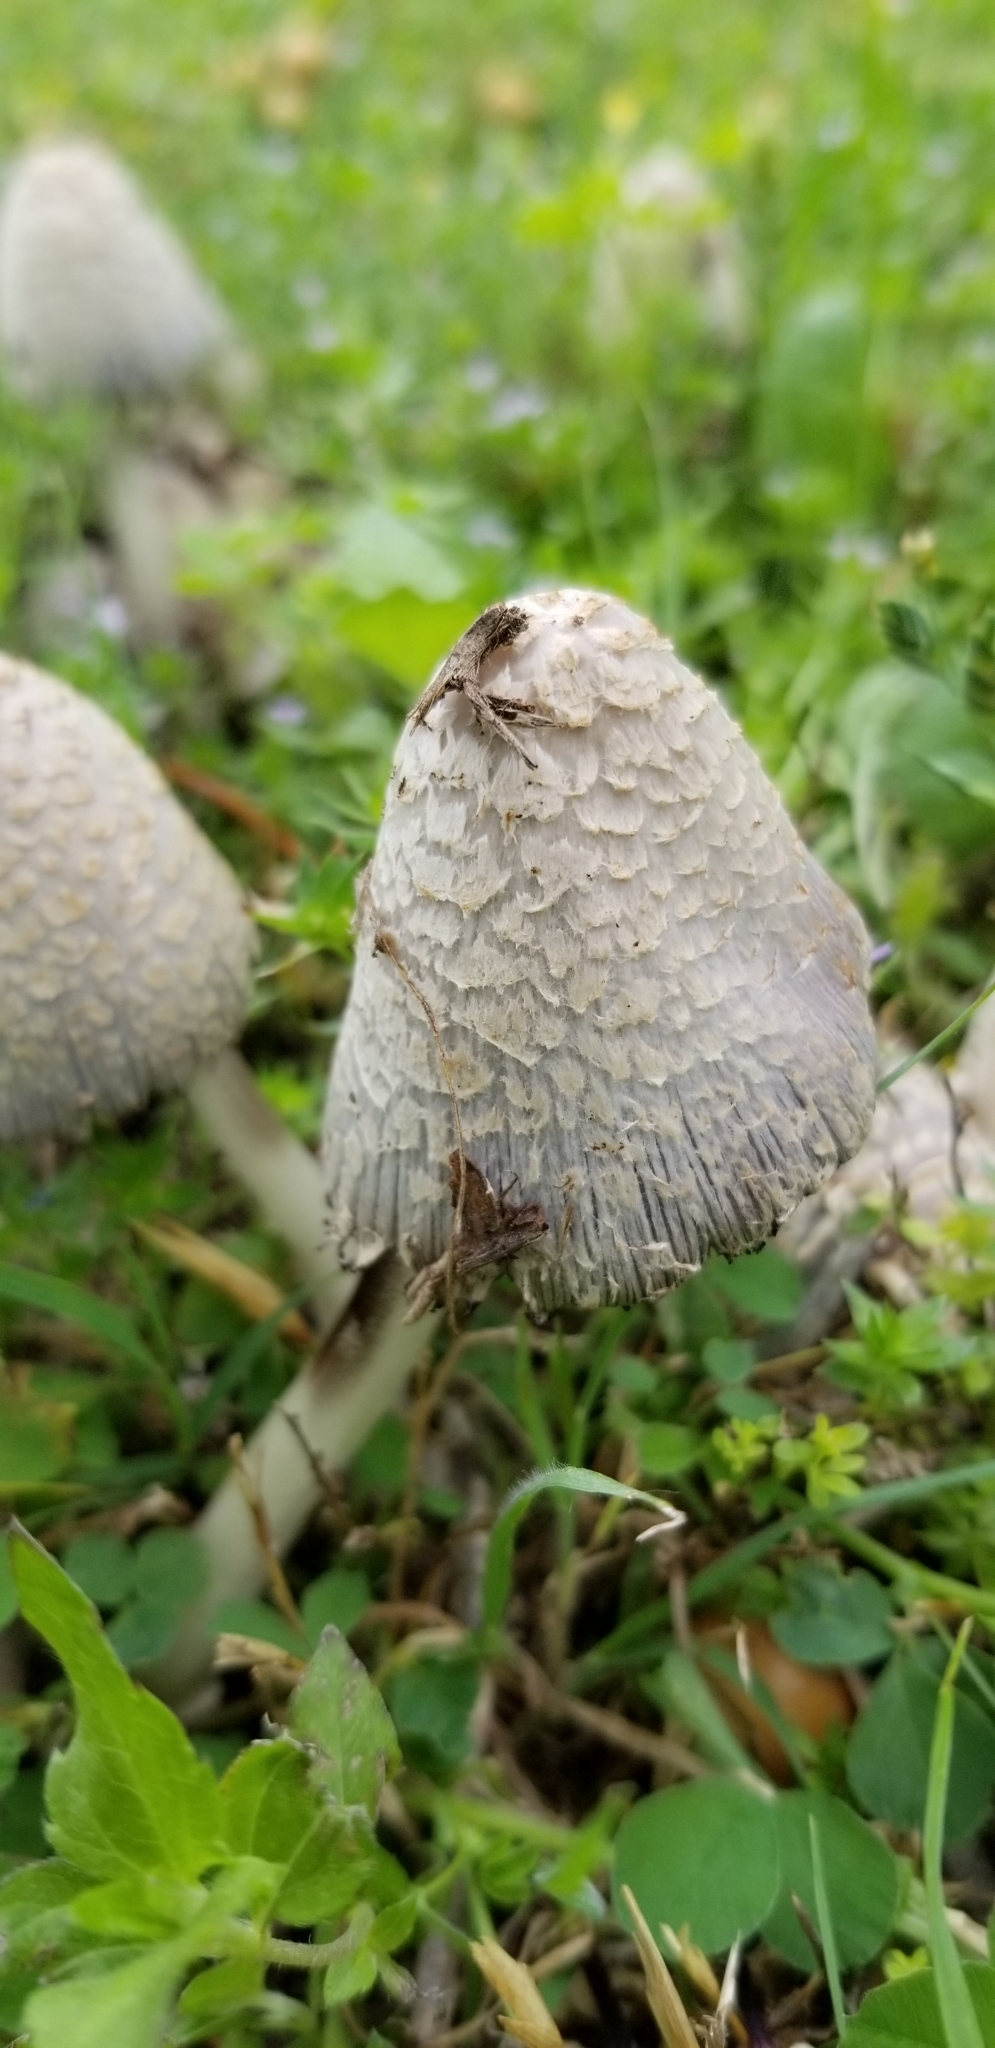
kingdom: Fungi
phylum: Basidiomycota
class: Agaricomycetes
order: Agaricales
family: Psathyrellaceae
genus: Coprinopsis
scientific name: Coprinopsis variegata
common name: Scaly ink cap
